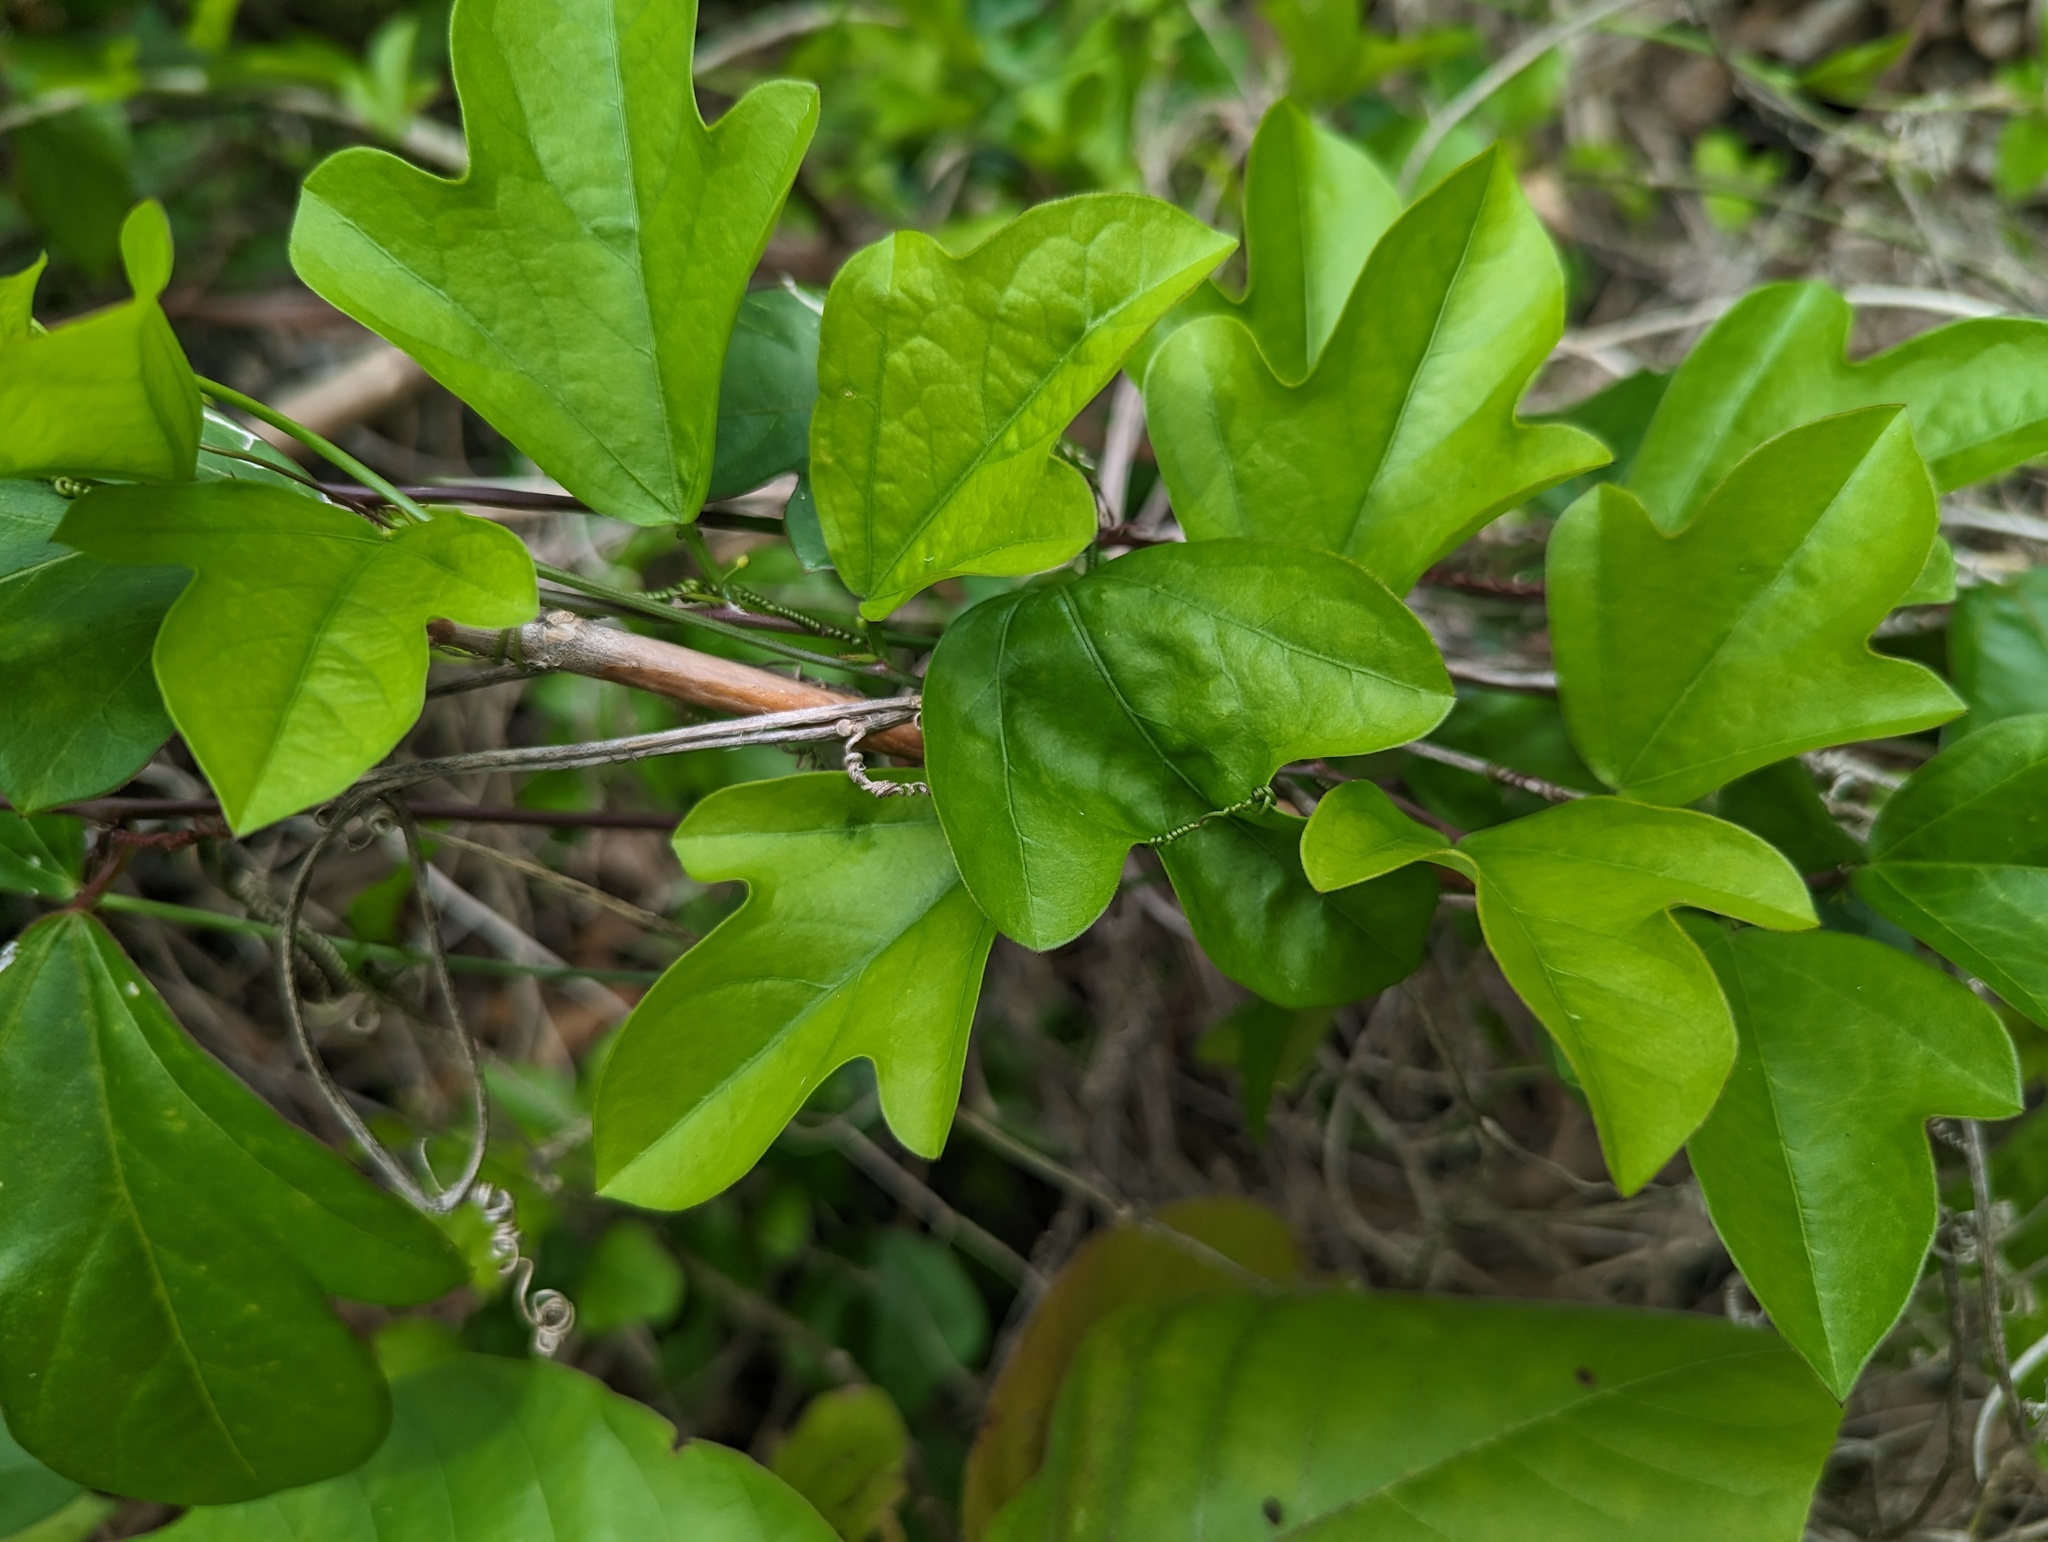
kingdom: Plantae
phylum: Tracheophyta
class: Magnoliopsida
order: Malpighiales
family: Passifloraceae
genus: Passiflora
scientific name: Passiflora pallida
